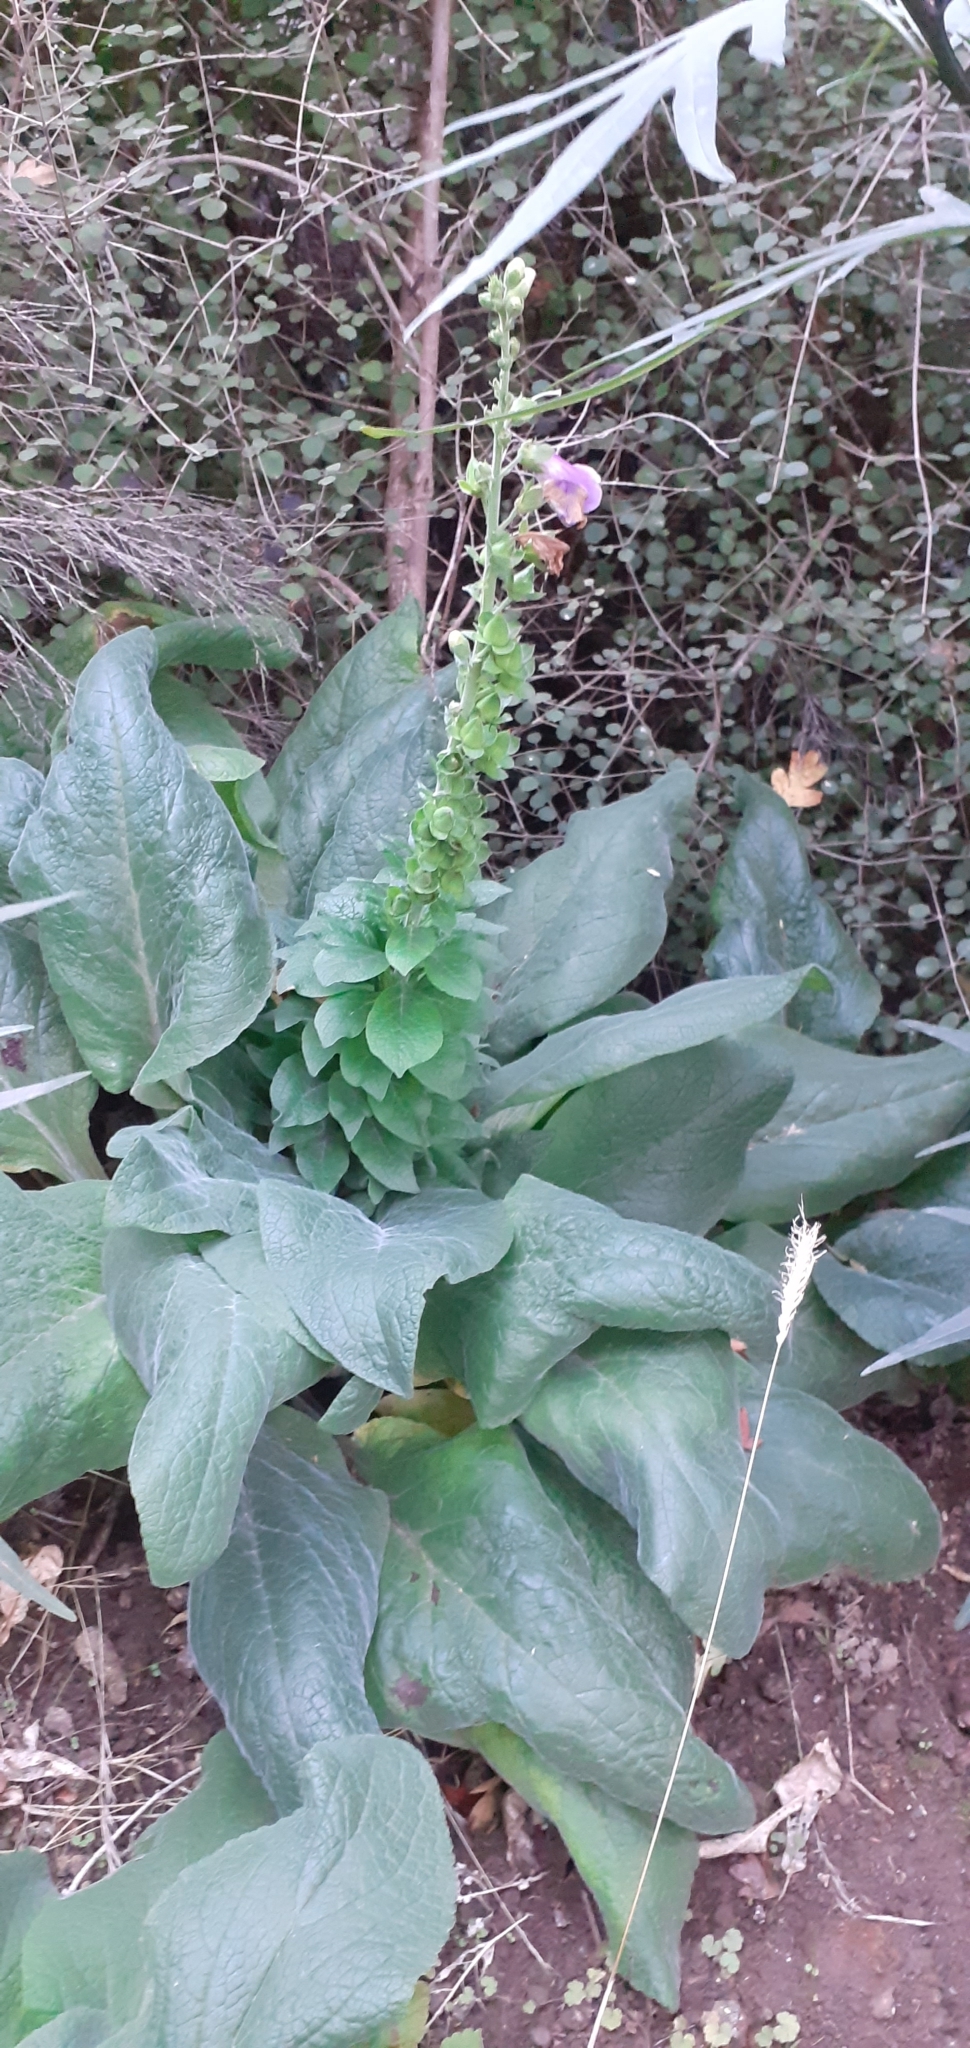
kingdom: Plantae
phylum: Tracheophyta
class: Magnoliopsida
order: Lamiales
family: Plantaginaceae
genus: Digitalis
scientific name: Digitalis purpurea
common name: Foxglove
